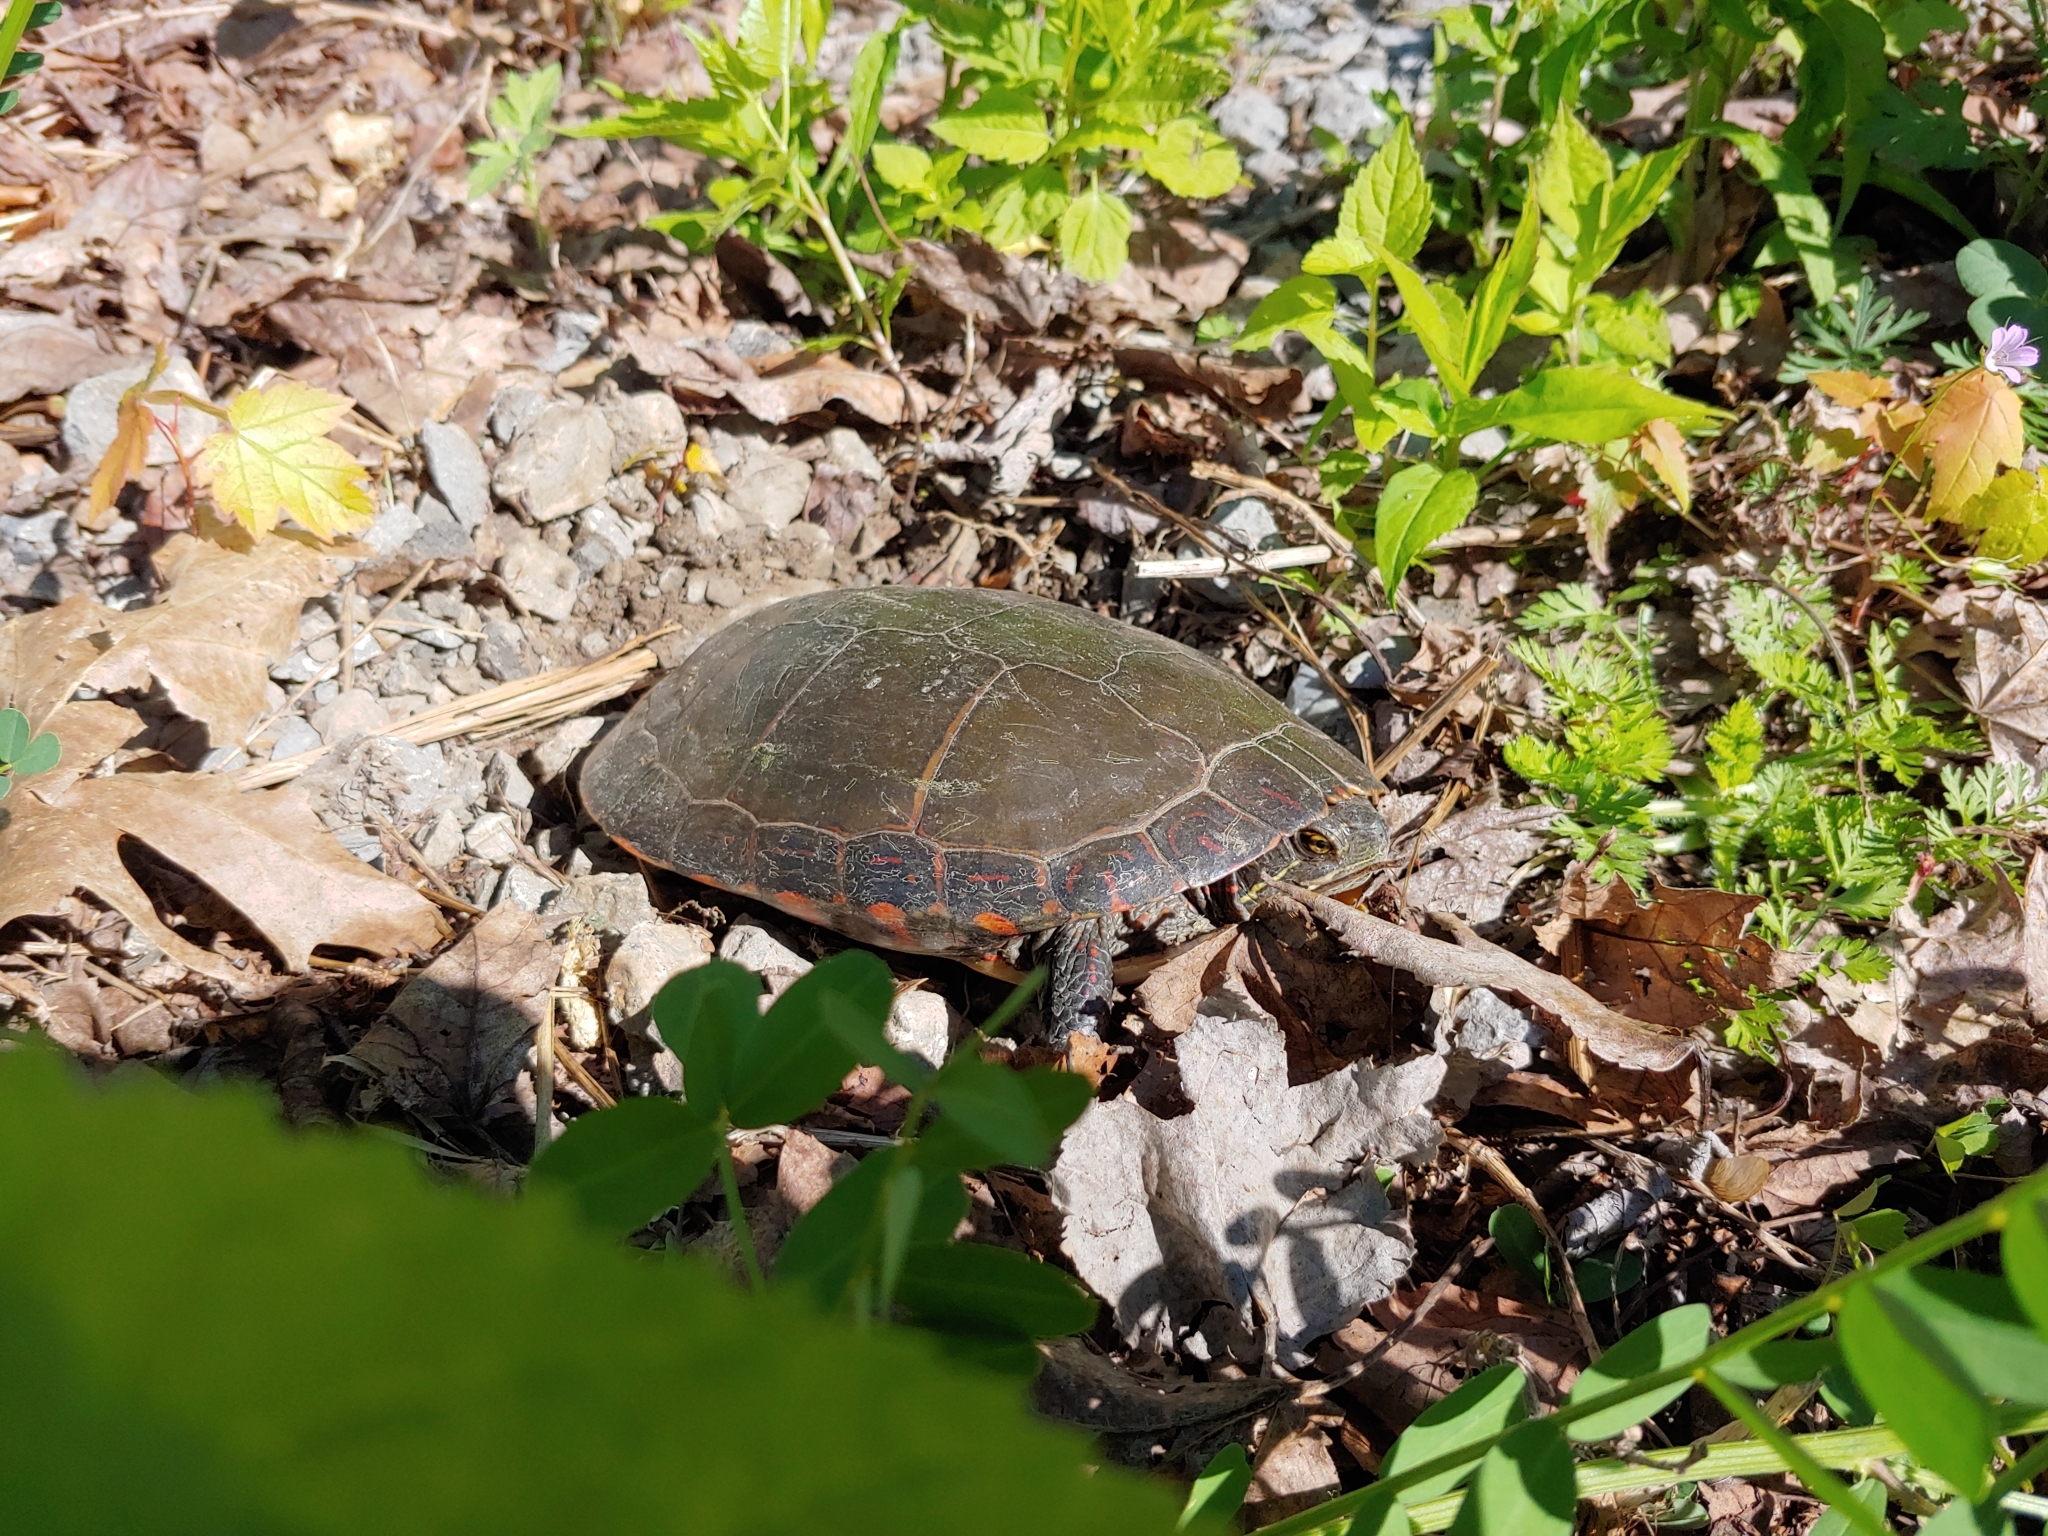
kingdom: Animalia
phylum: Chordata
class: Testudines
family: Emydidae
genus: Chrysemys
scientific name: Chrysemys picta
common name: Painted turtle
